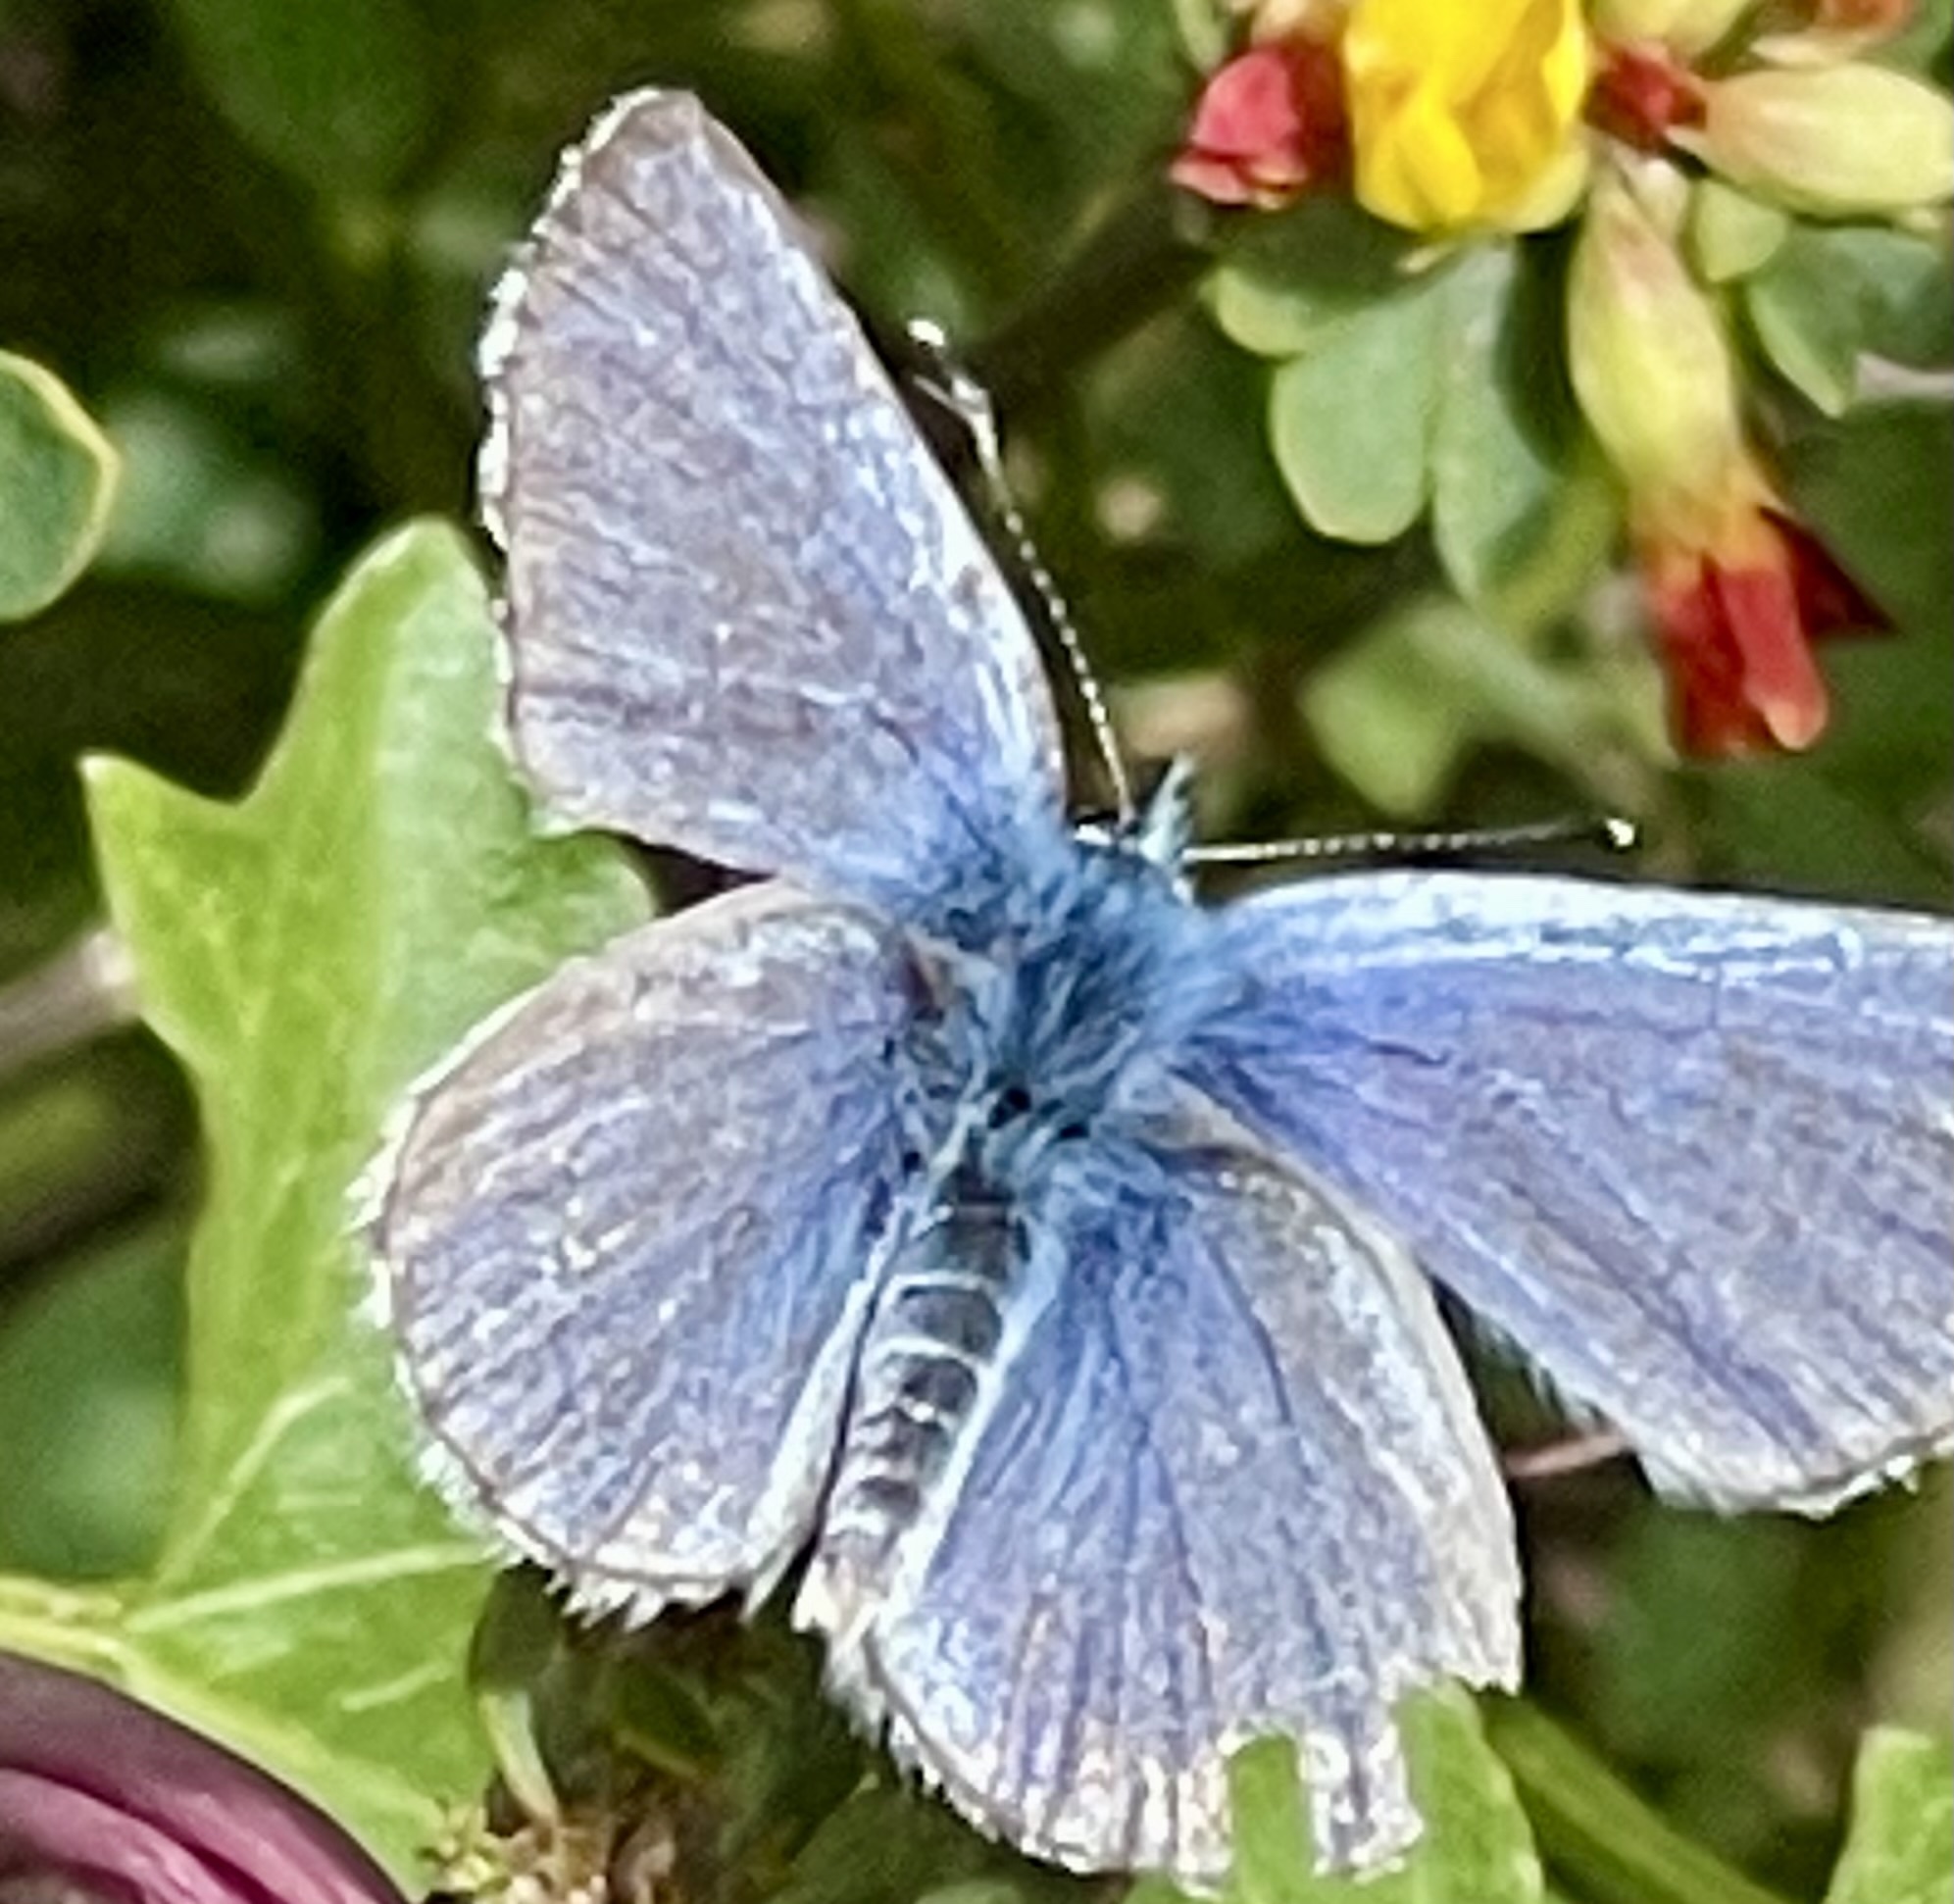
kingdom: Animalia
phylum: Arthropoda
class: Insecta
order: Lepidoptera
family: Lycaenidae
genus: Glaucopsyche
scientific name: Glaucopsyche lygdamus
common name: Silvery blue
